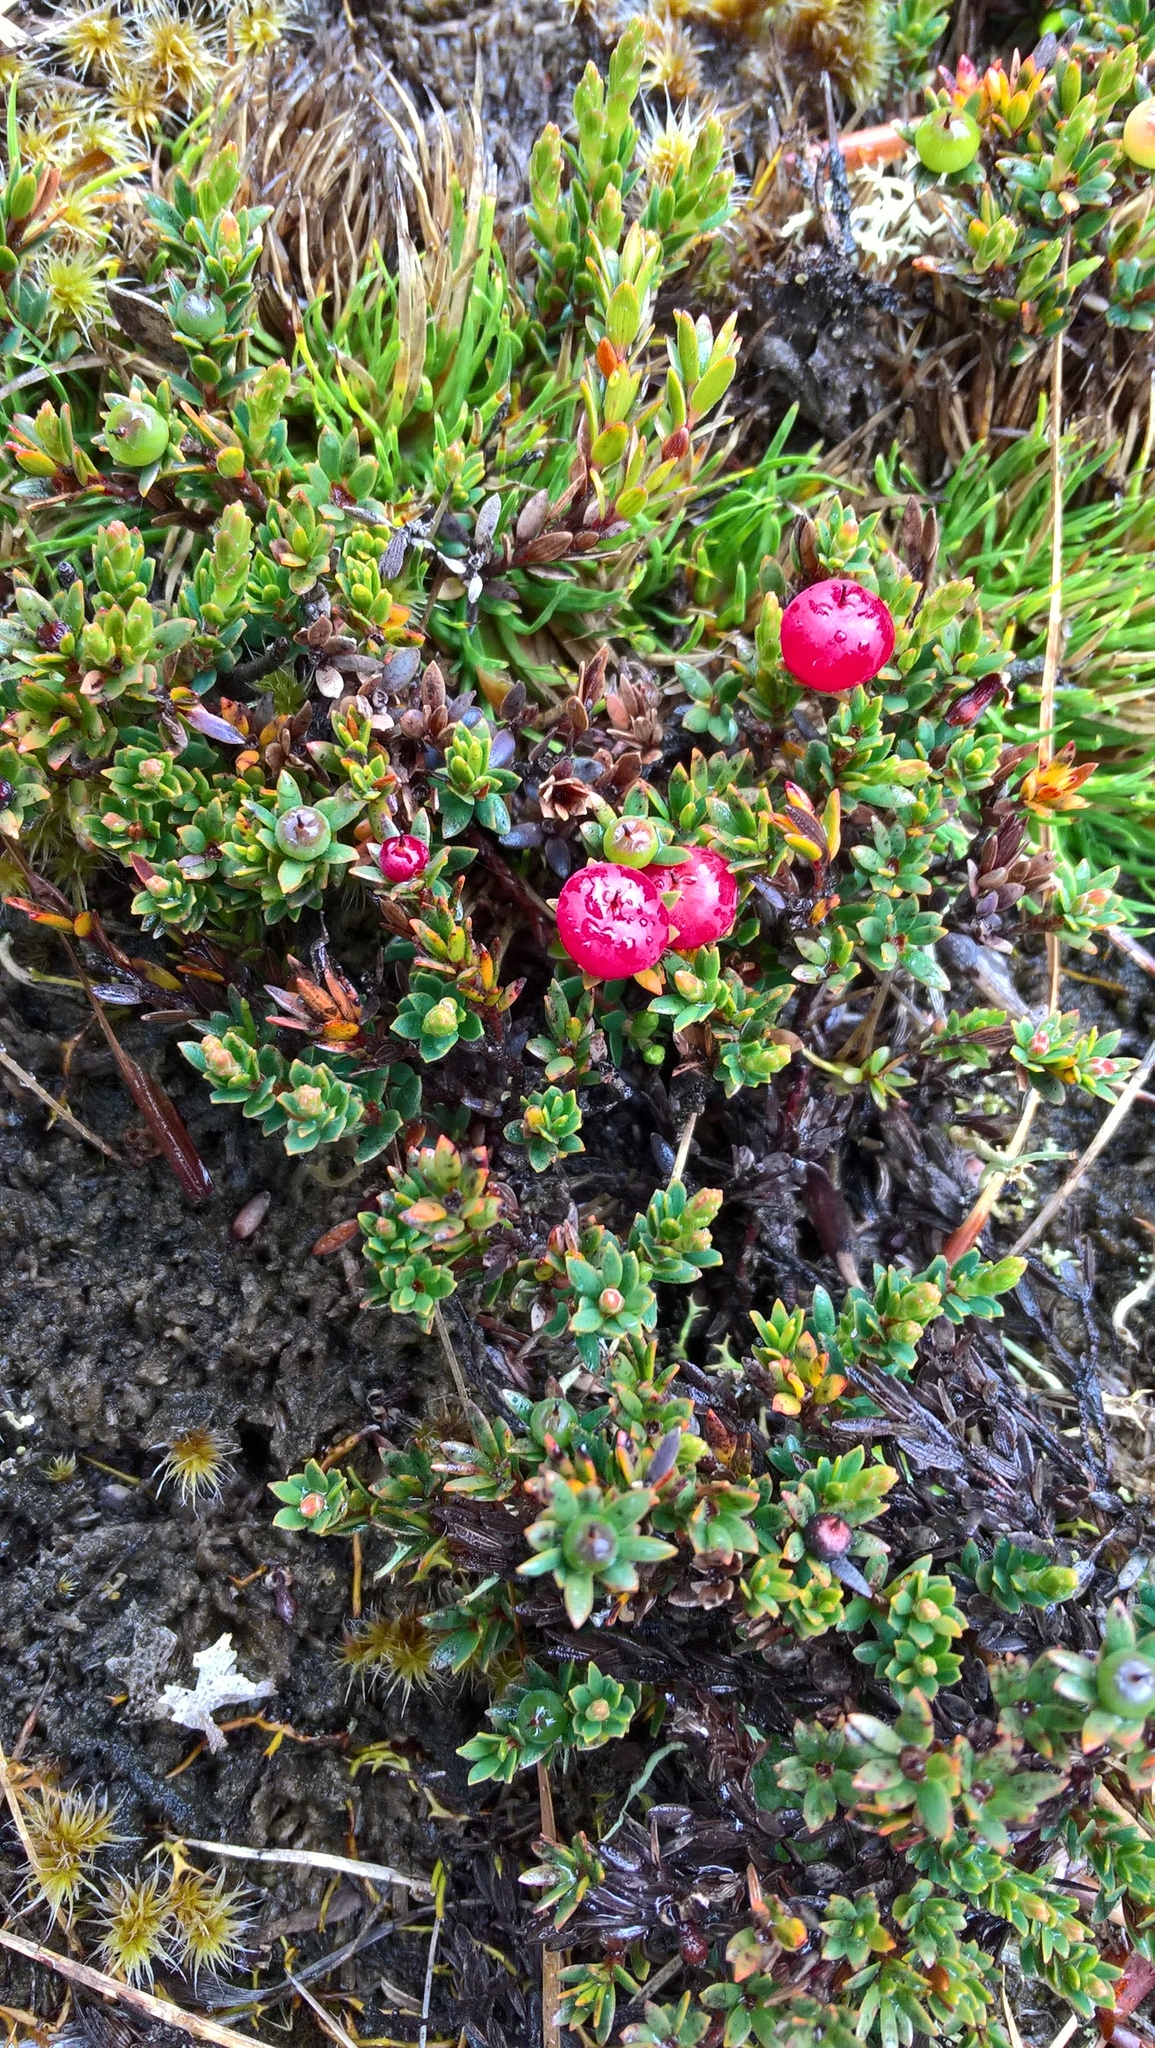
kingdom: Plantae
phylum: Tracheophyta
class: Magnoliopsida
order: Ericales
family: Ericaceae
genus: Pentachondra
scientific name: Pentachondra pumila
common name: Carpet-heath
